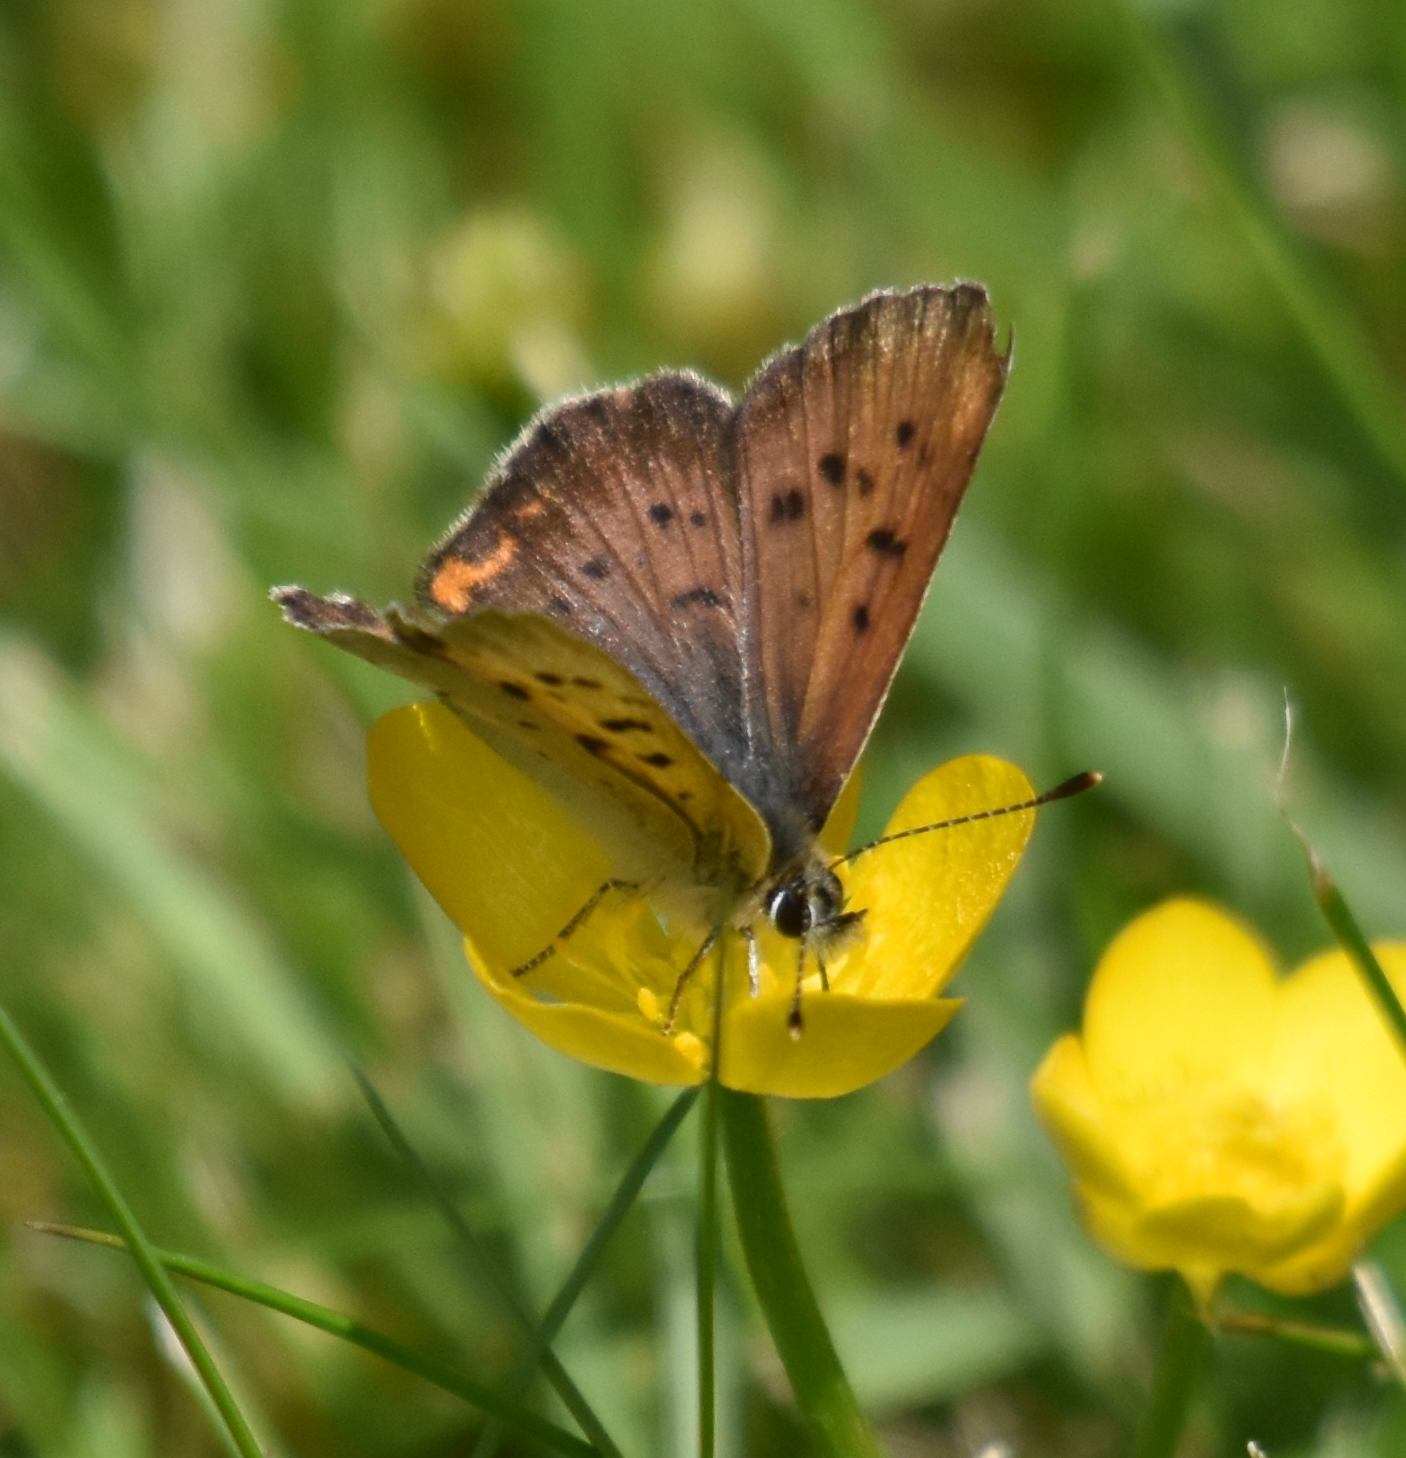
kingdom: Animalia
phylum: Arthropoda
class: Insecta
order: Lepidoptera
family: Lycaenidae
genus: Tharsalea
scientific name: Tharsalea helloides
